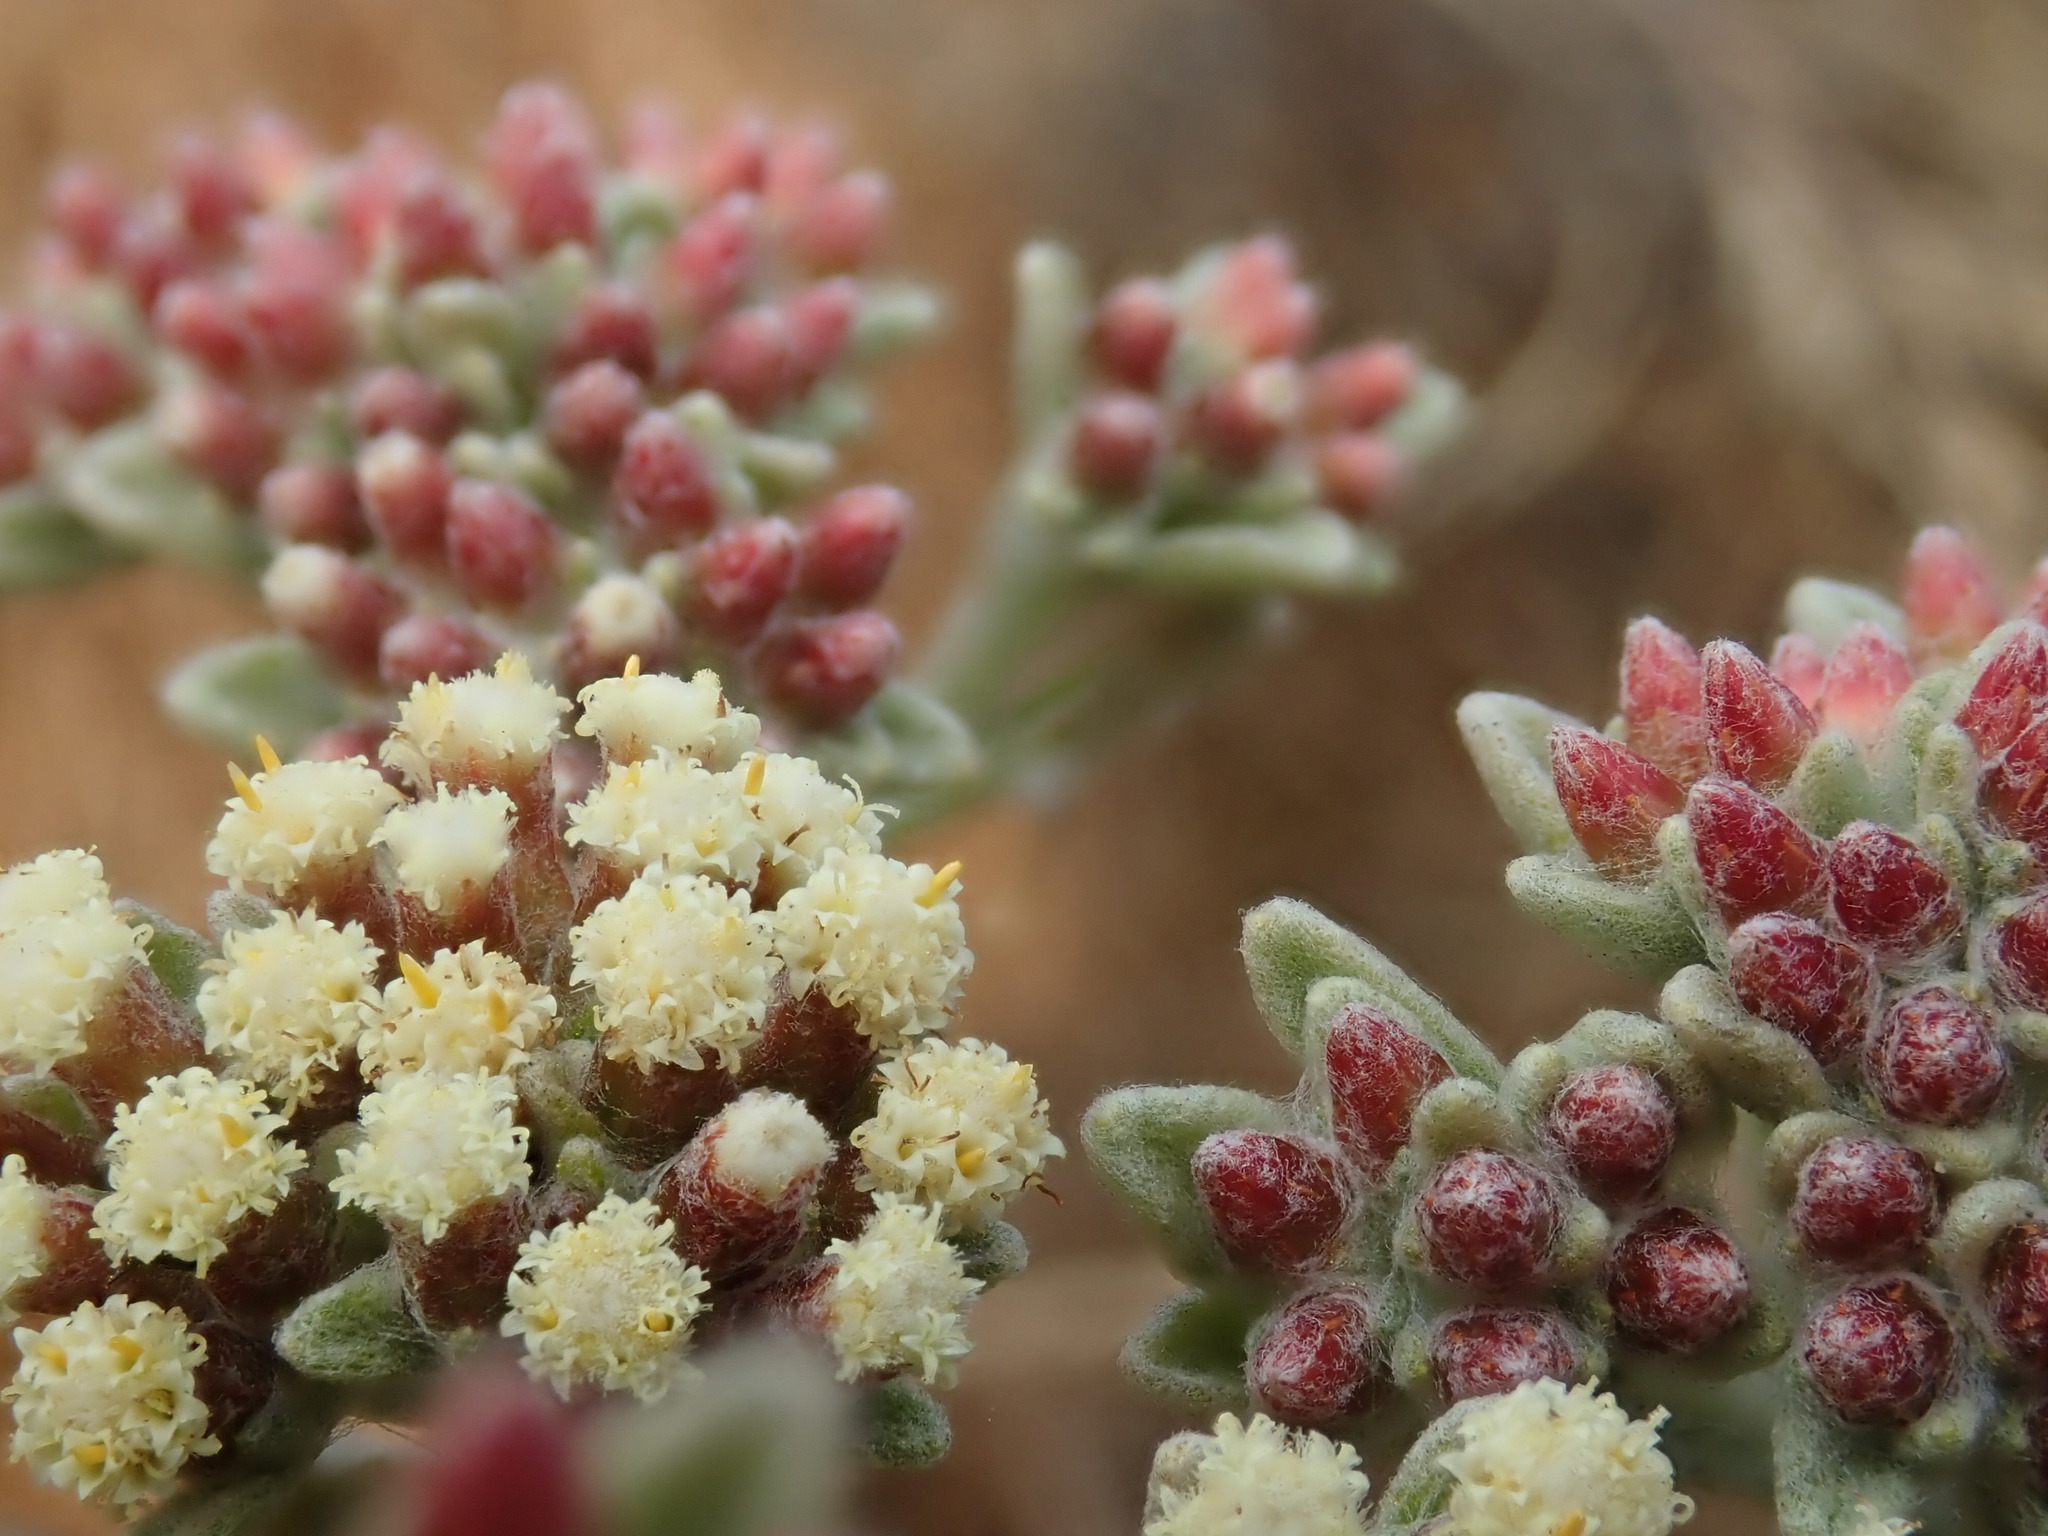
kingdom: Plantae
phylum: Tracheophyta
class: Magnoliopsida
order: Asterales
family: Asteraceae
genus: Helichrysum
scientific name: Helichrysum spiralepis
